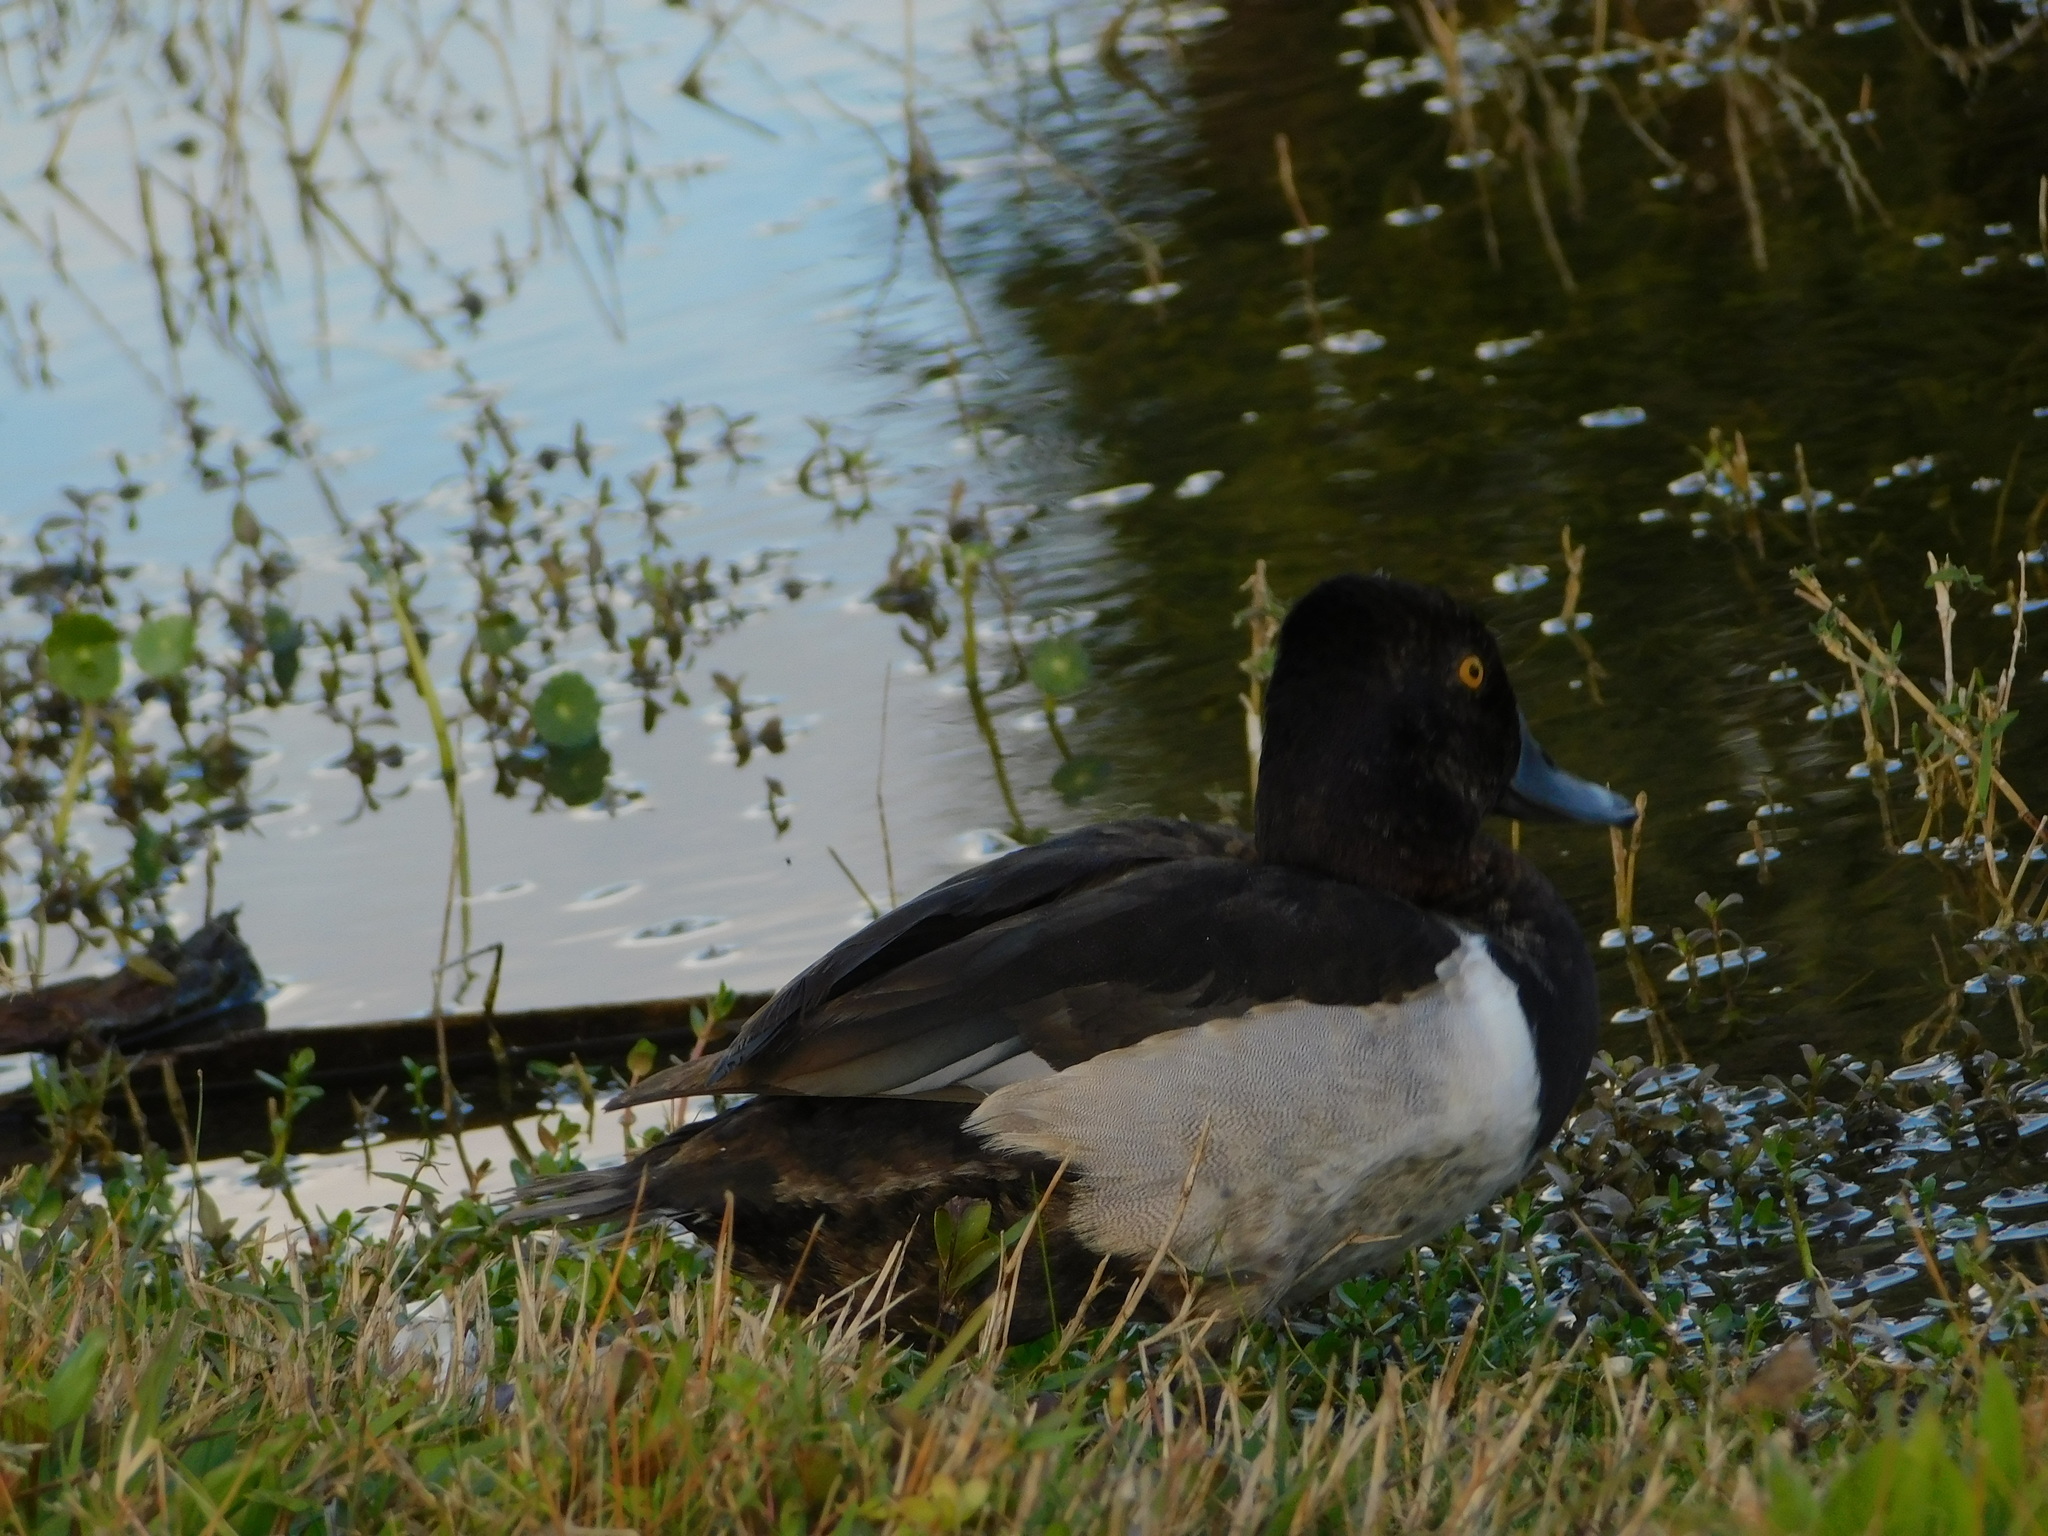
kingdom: Animalia
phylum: Chordata
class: Aves
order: Anseriformes
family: Anatidae
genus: Aythya
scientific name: Aythya collaris
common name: Ring-necked duck
